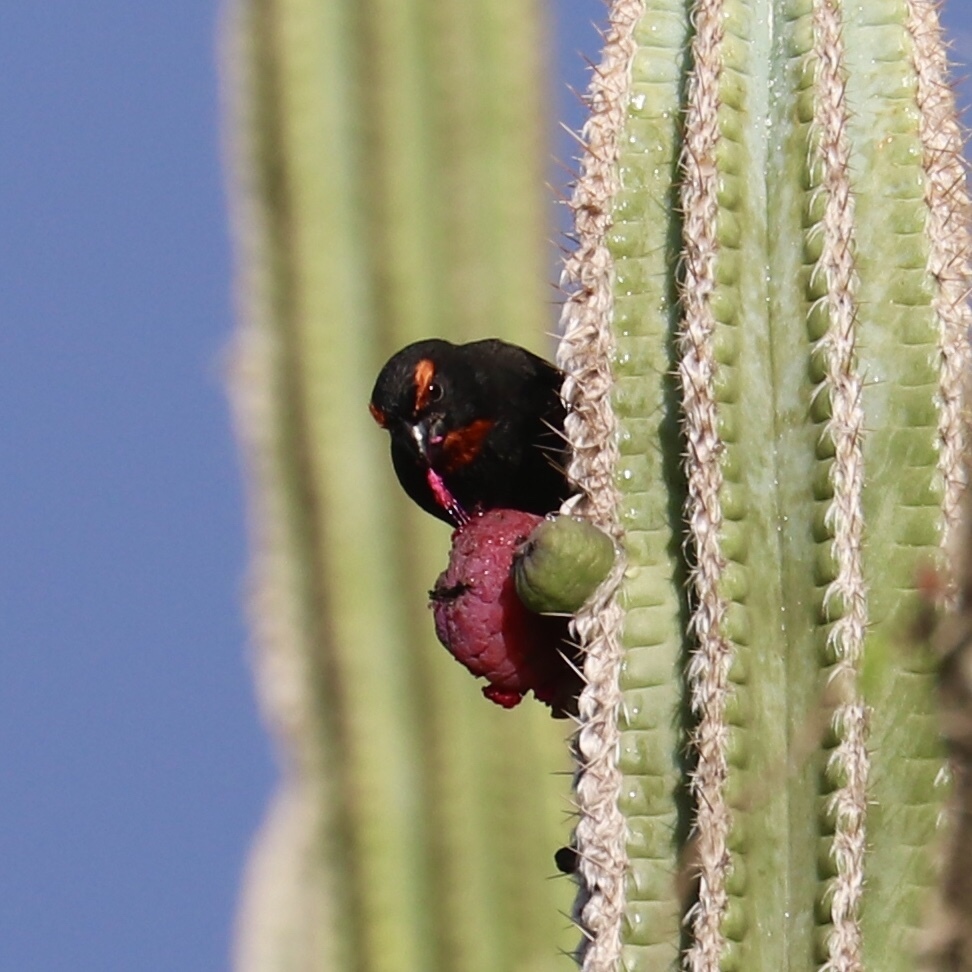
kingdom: Animalia
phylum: Chordata
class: Aves
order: Passeriformes
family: Thraupidae
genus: Melopyrrha
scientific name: Melopyrrha violacea
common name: Greater antillean bullfinch
